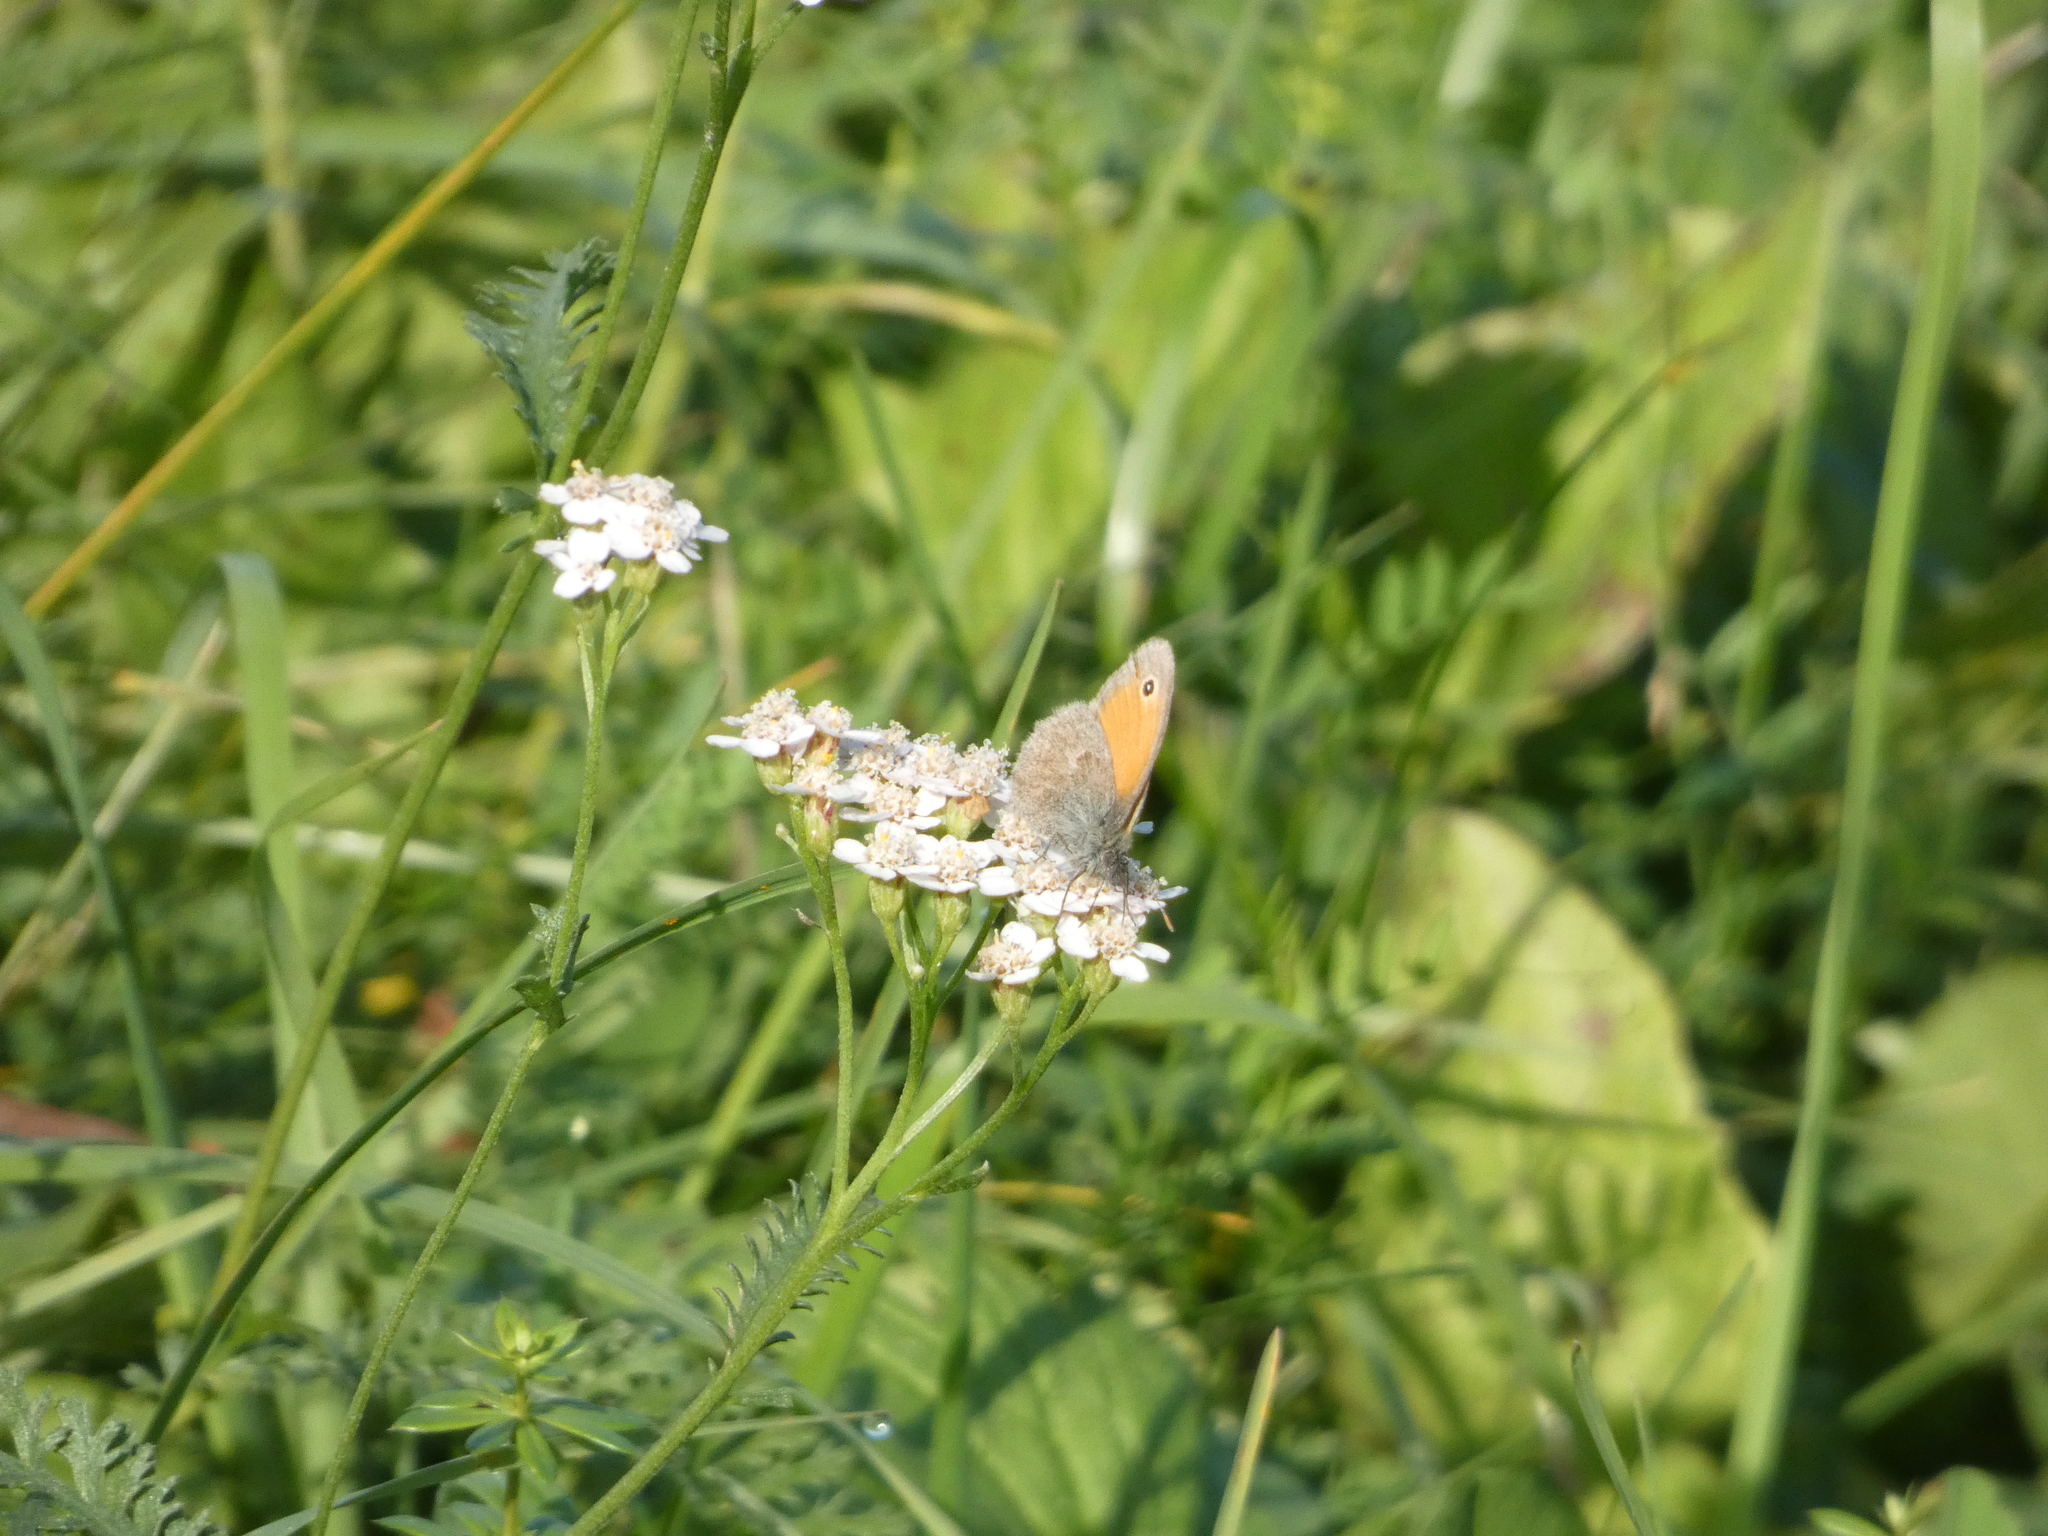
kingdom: Animalia
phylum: Arthropoda
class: Insecta
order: Lepidoptera
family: Nymphalidae
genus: Coenonympha
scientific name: Coenonympha pamphilus
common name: Small heath
